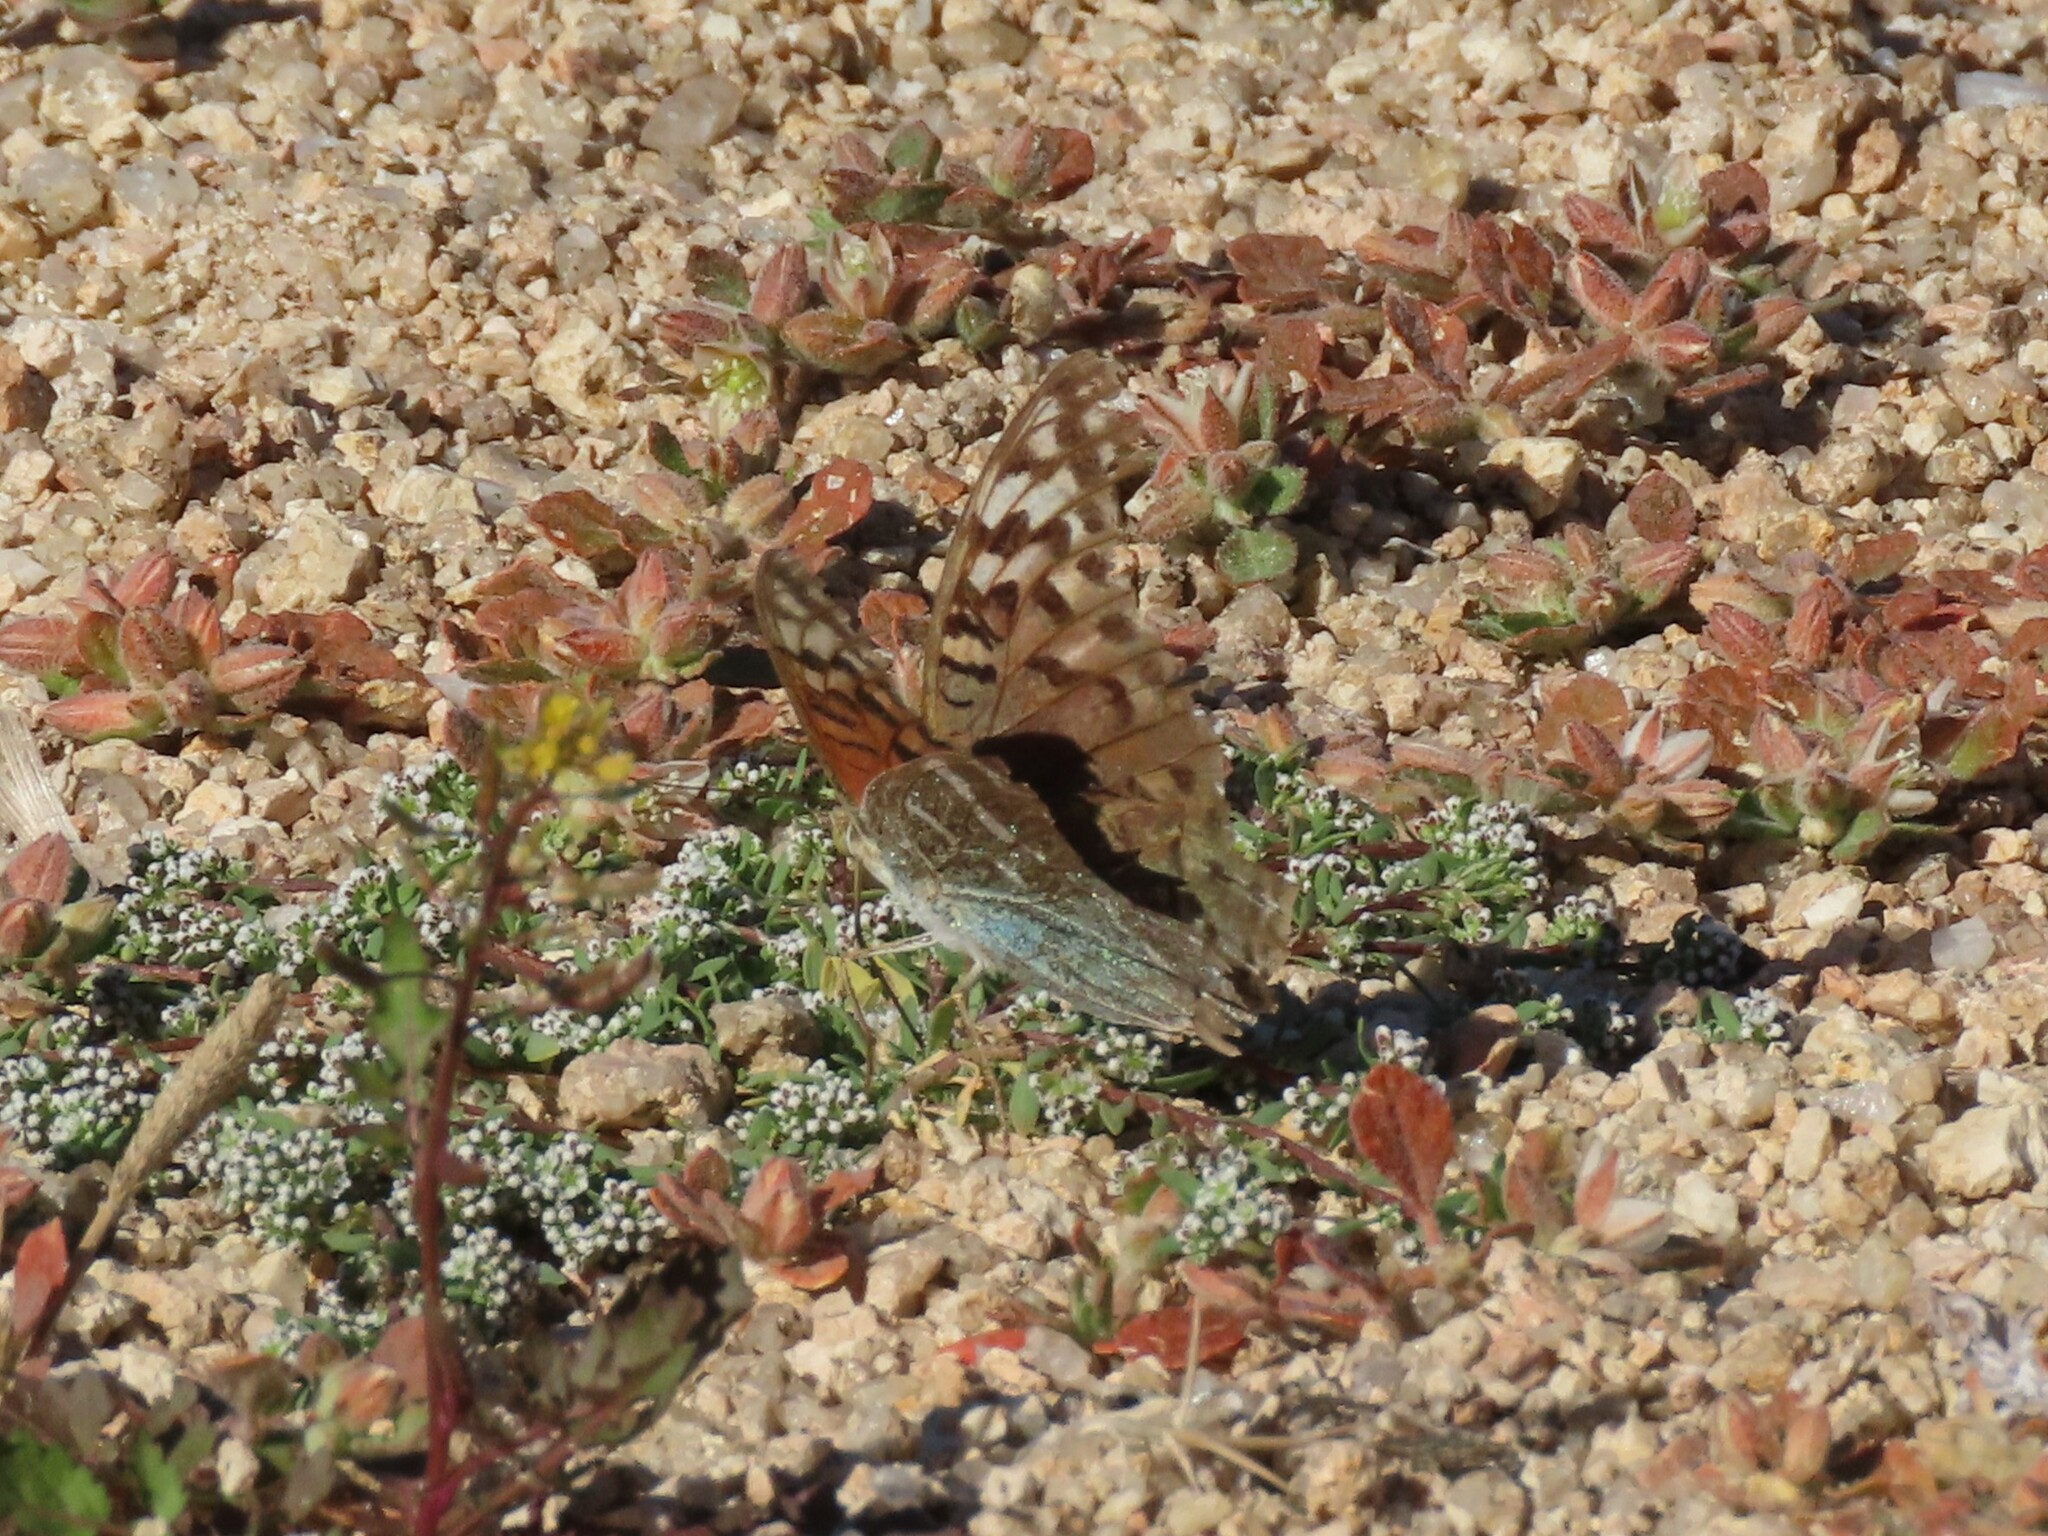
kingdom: Animalia
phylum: Arthropoda
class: Insecta
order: Lepidoptera
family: Nymphalidae
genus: Damora
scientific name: Damora pandora
